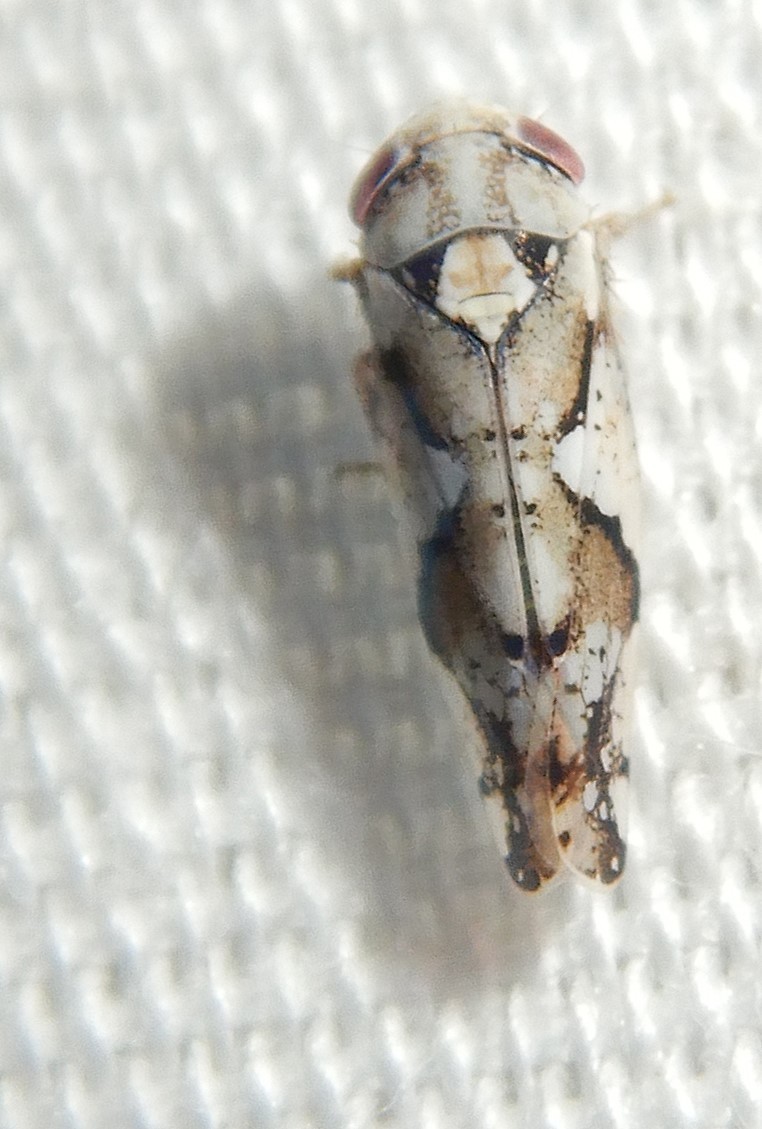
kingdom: Animalia
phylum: Arthropoda
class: Insecta
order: Hemiptera
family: Cicadellidae
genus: Norvellina
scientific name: Norvellina mildredae
